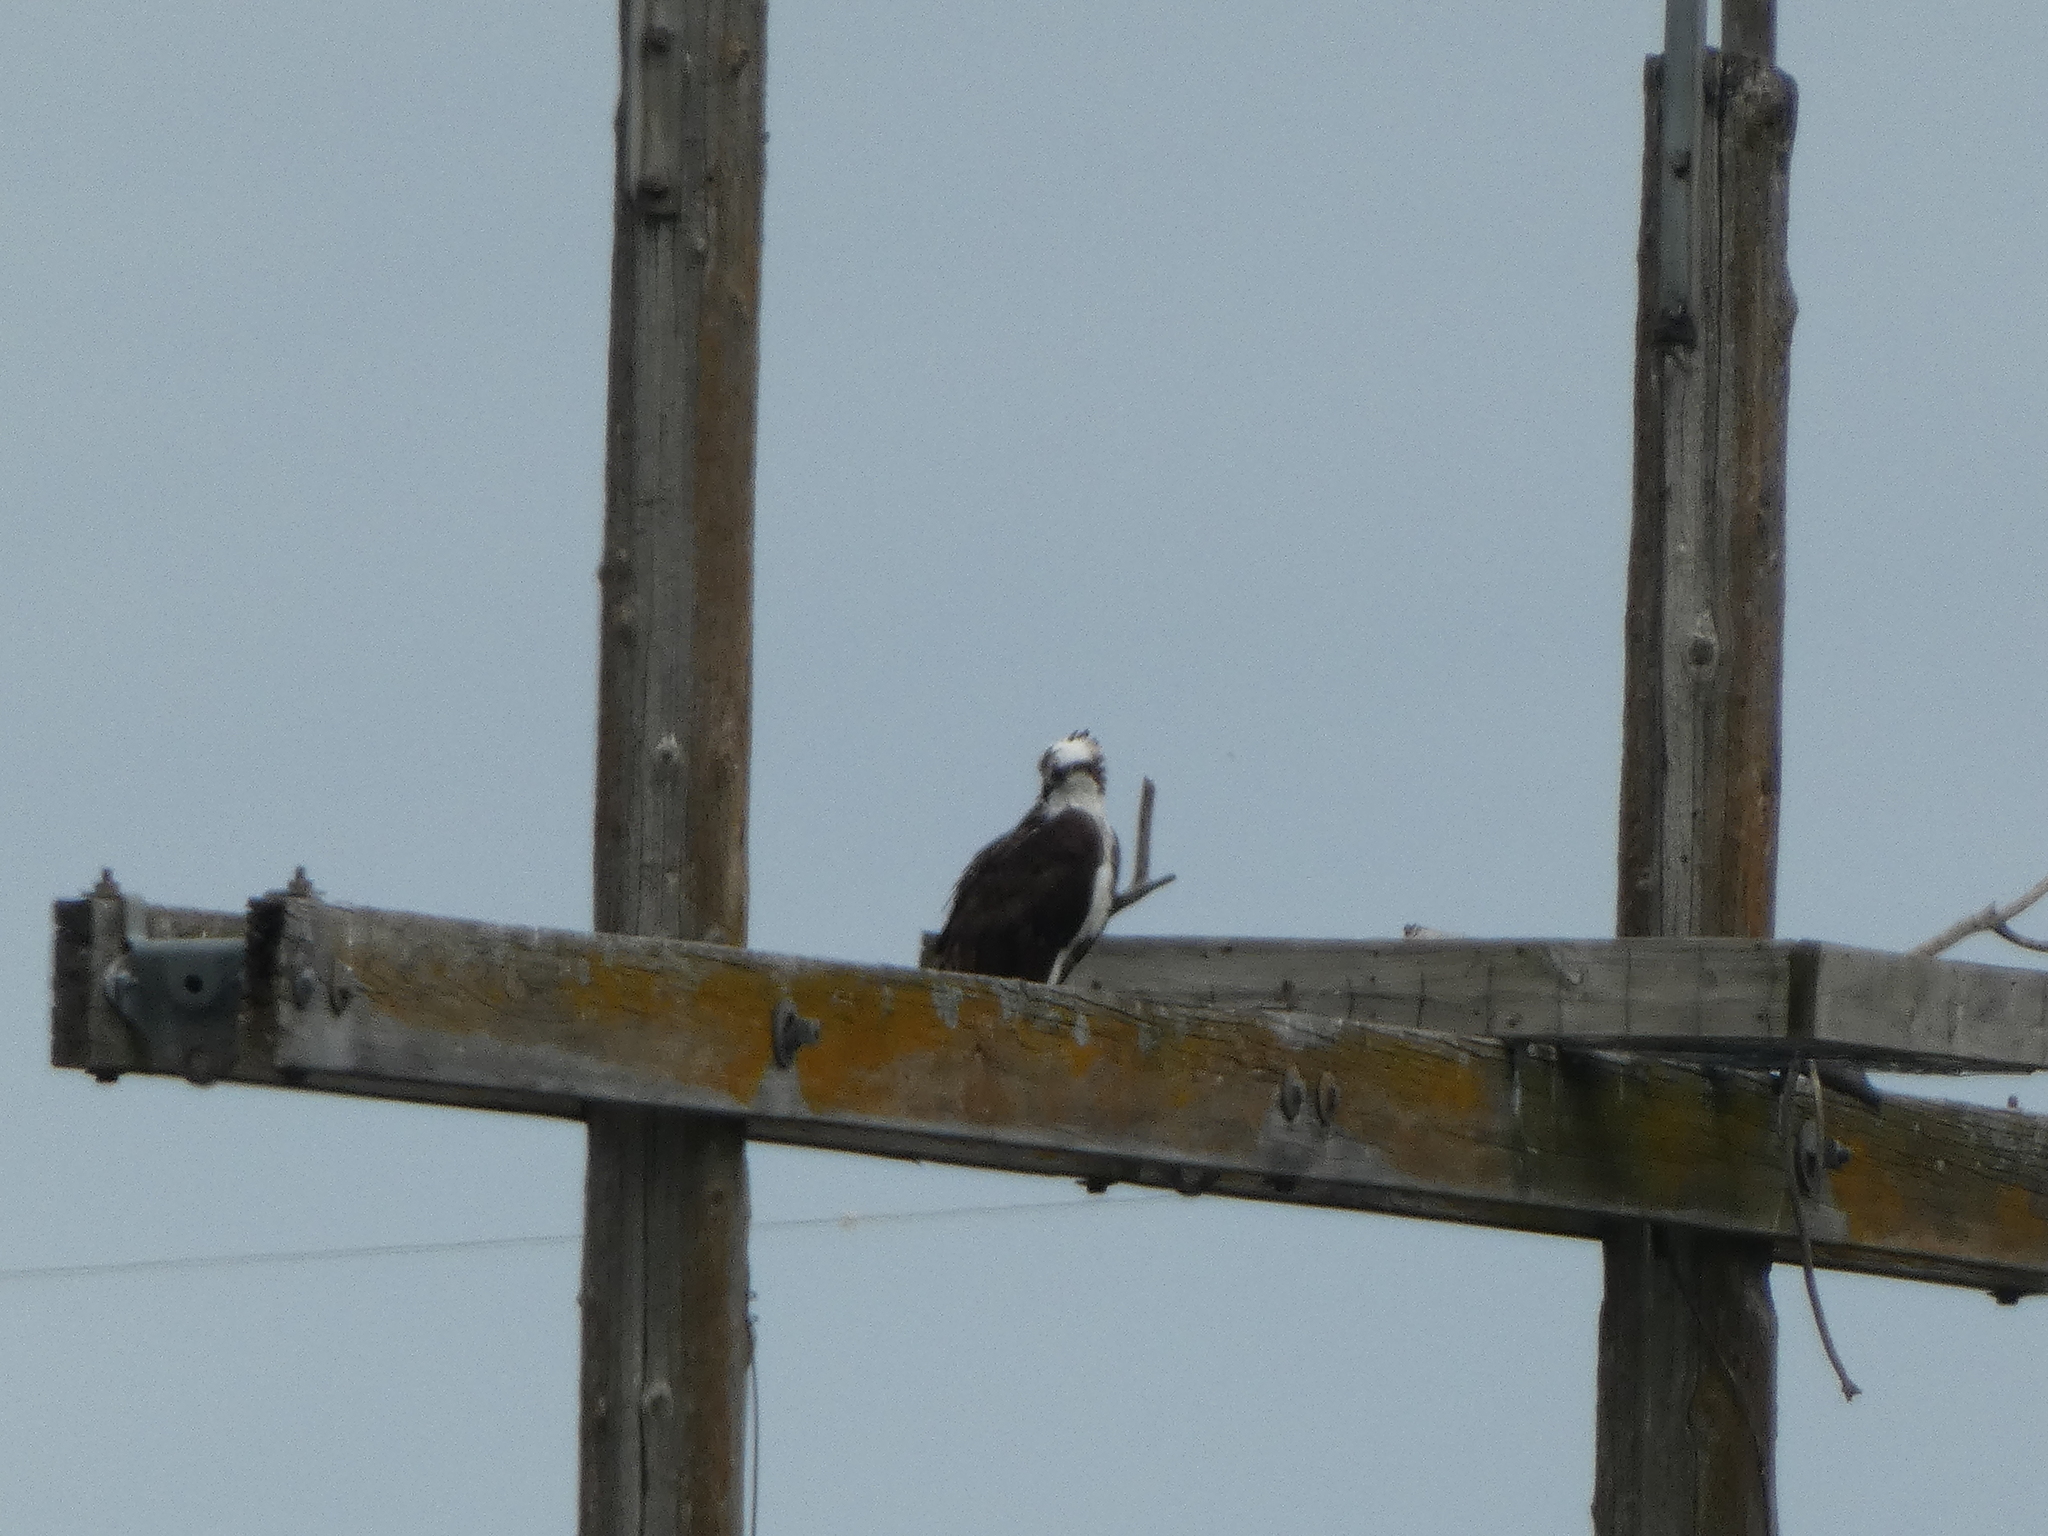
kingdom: Animalia
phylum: Chordata
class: Aves
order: Accipitriformes
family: Pandionidae
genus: Pandion
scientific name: Pandion haliaetus
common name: Osprey
